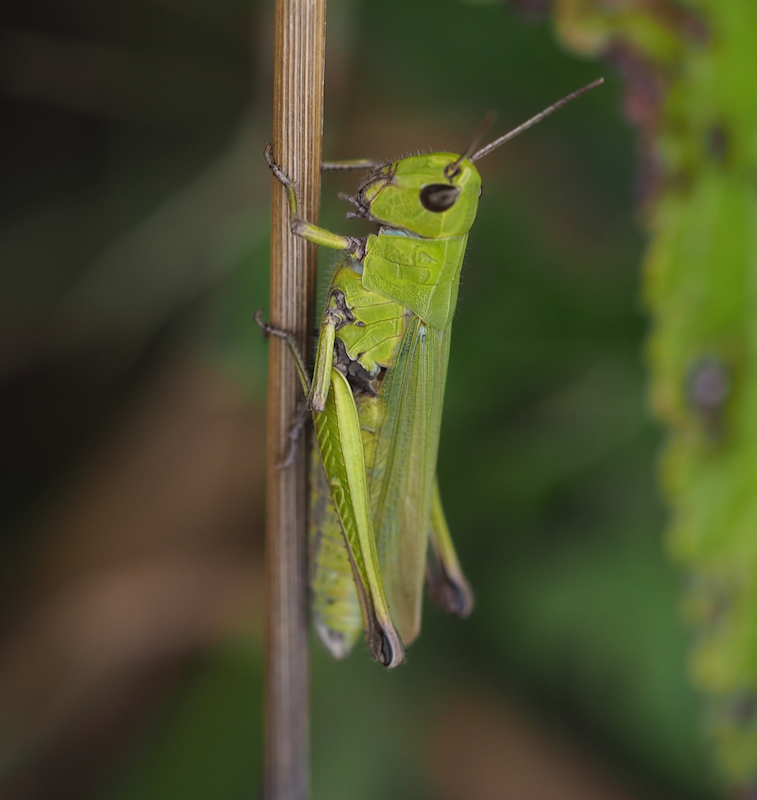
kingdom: Animalia
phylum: Arthropoda
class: Insecta
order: Orthoptera
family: Acrididae
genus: Chorthippus
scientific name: Chorthippus dorsatus
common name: Steppe grasshopper
